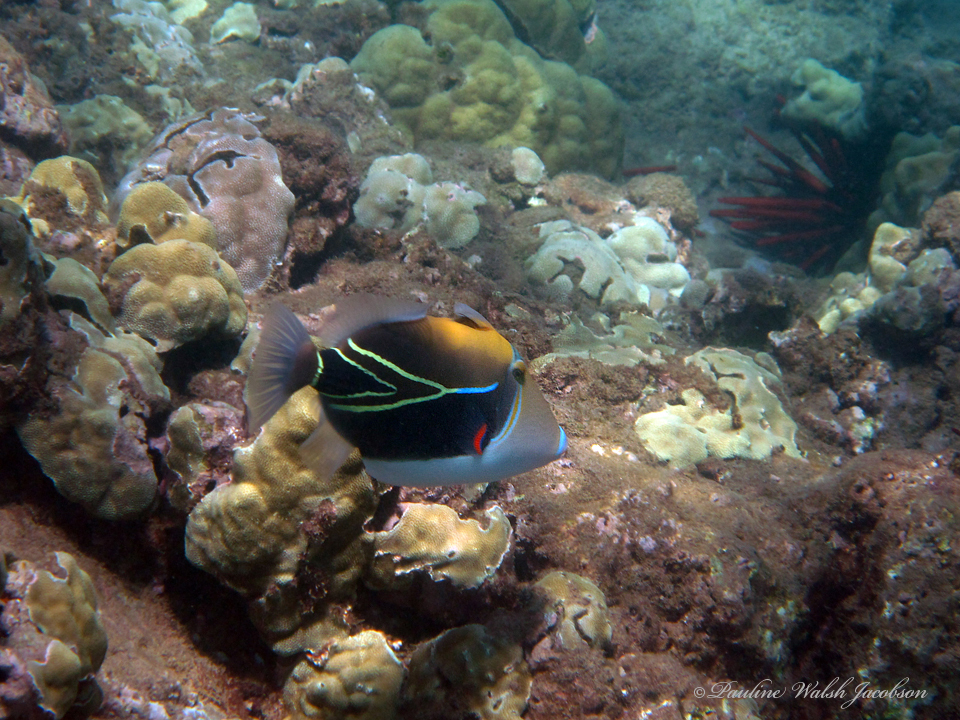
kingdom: Animalia
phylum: Chordata
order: Tetraodontiformes
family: Balistidae
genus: Rhinecanthus
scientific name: Rhinecanthus rectangulus
